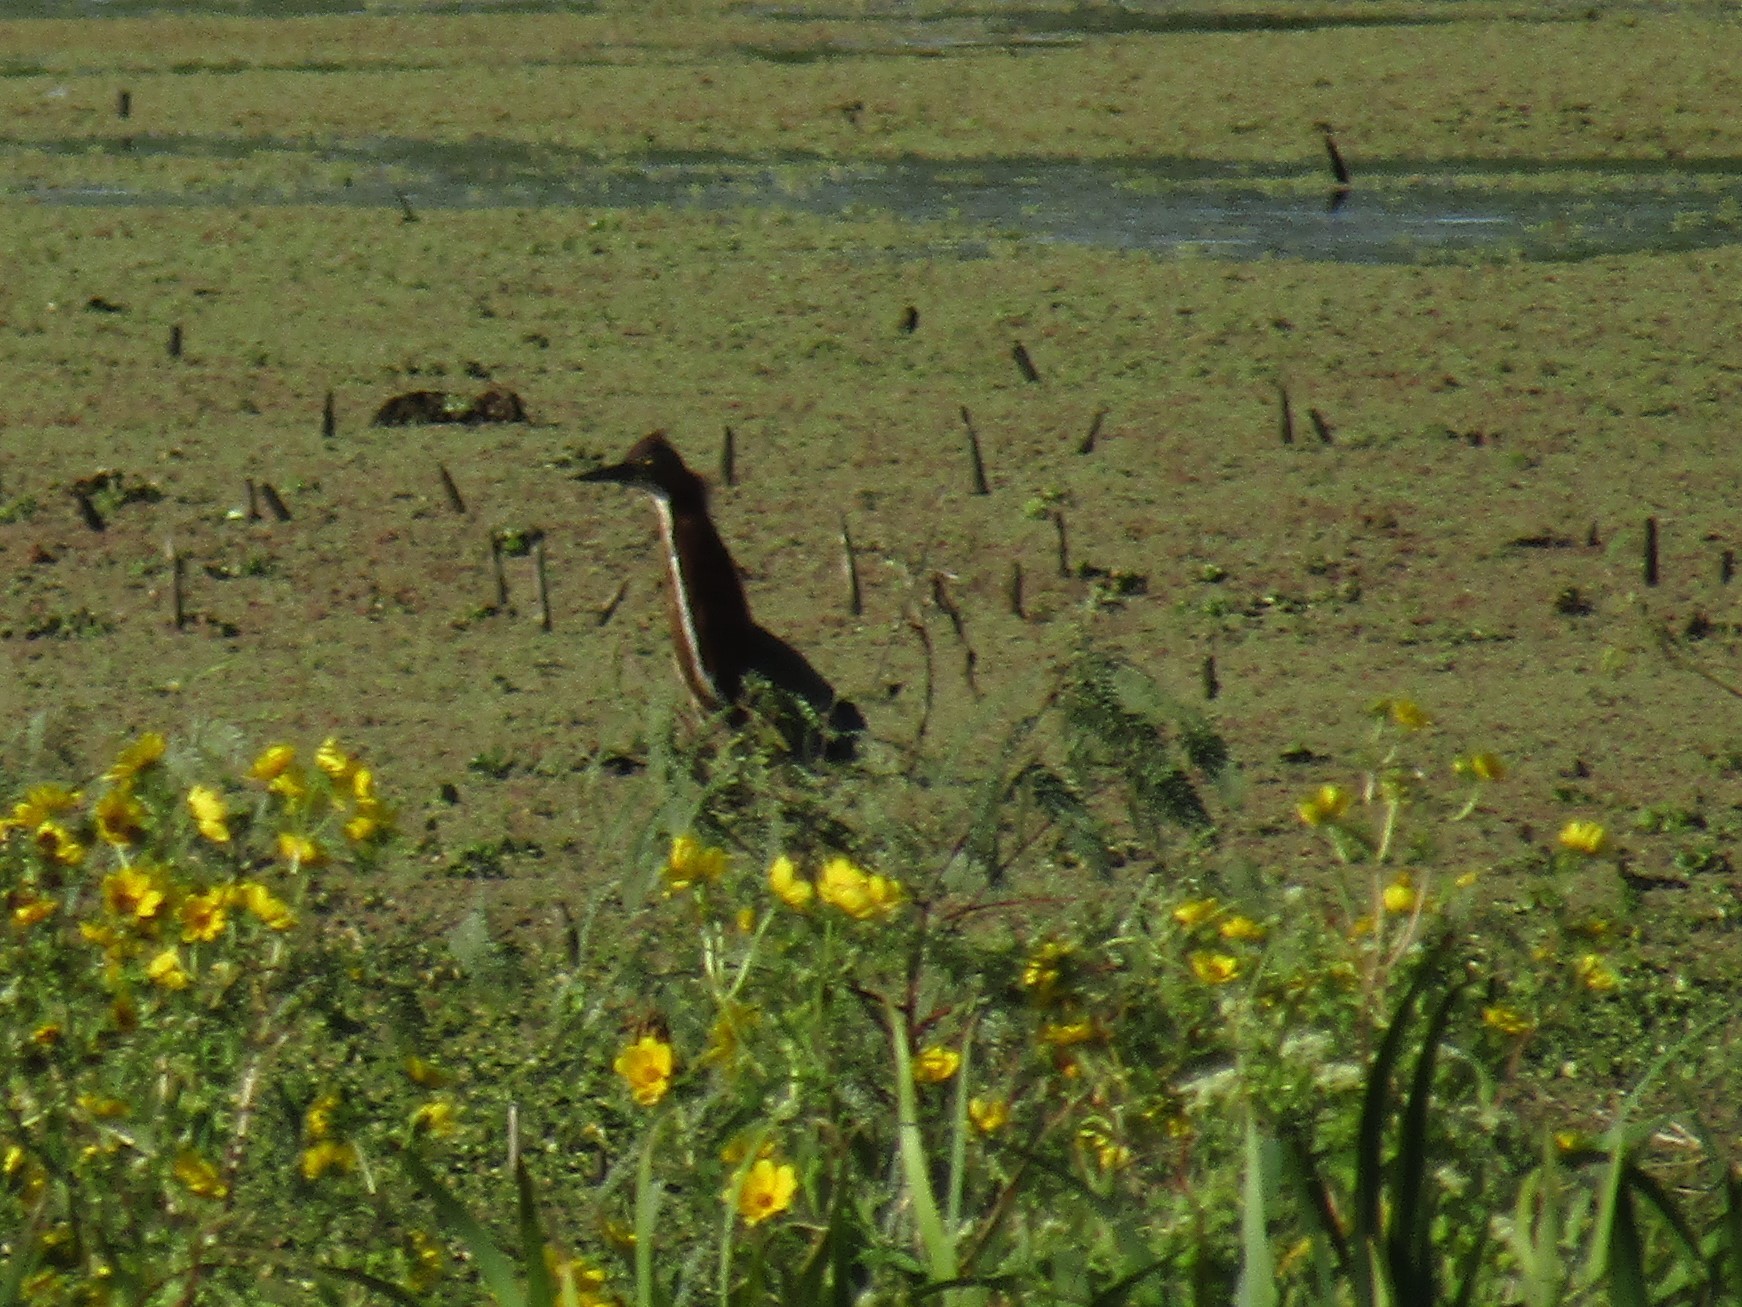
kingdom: Animalia
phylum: Chordata
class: Aves
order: Pelecaniformes
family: Ardeidae
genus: Tigrisoma
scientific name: Tigrisoma lineatum
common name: Rufescent tiger-heron
